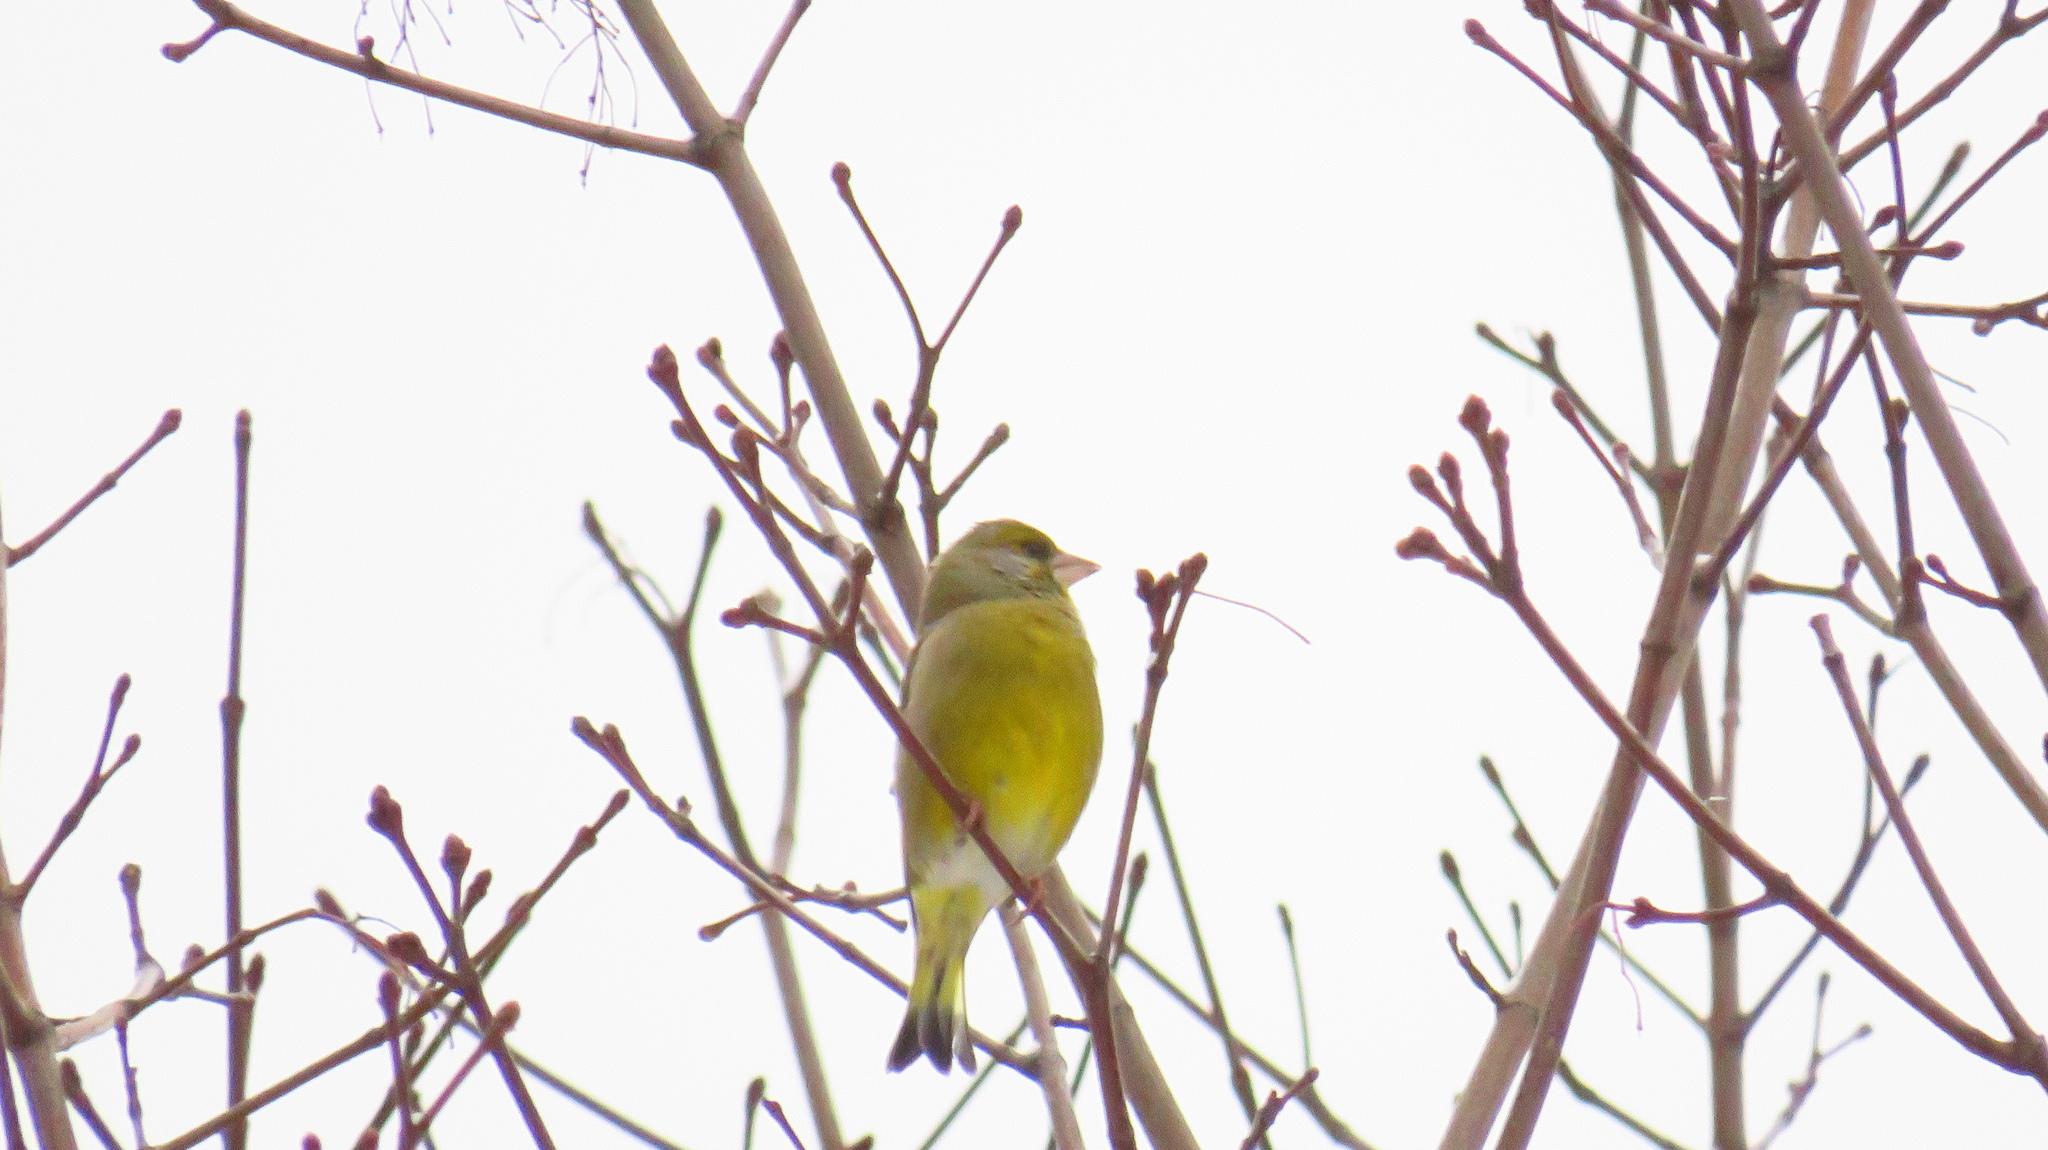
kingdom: Plantae
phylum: Tracheophyta
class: Liliopsida
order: Poales
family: Poaceae
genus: Chloris
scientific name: Chloris chloris
